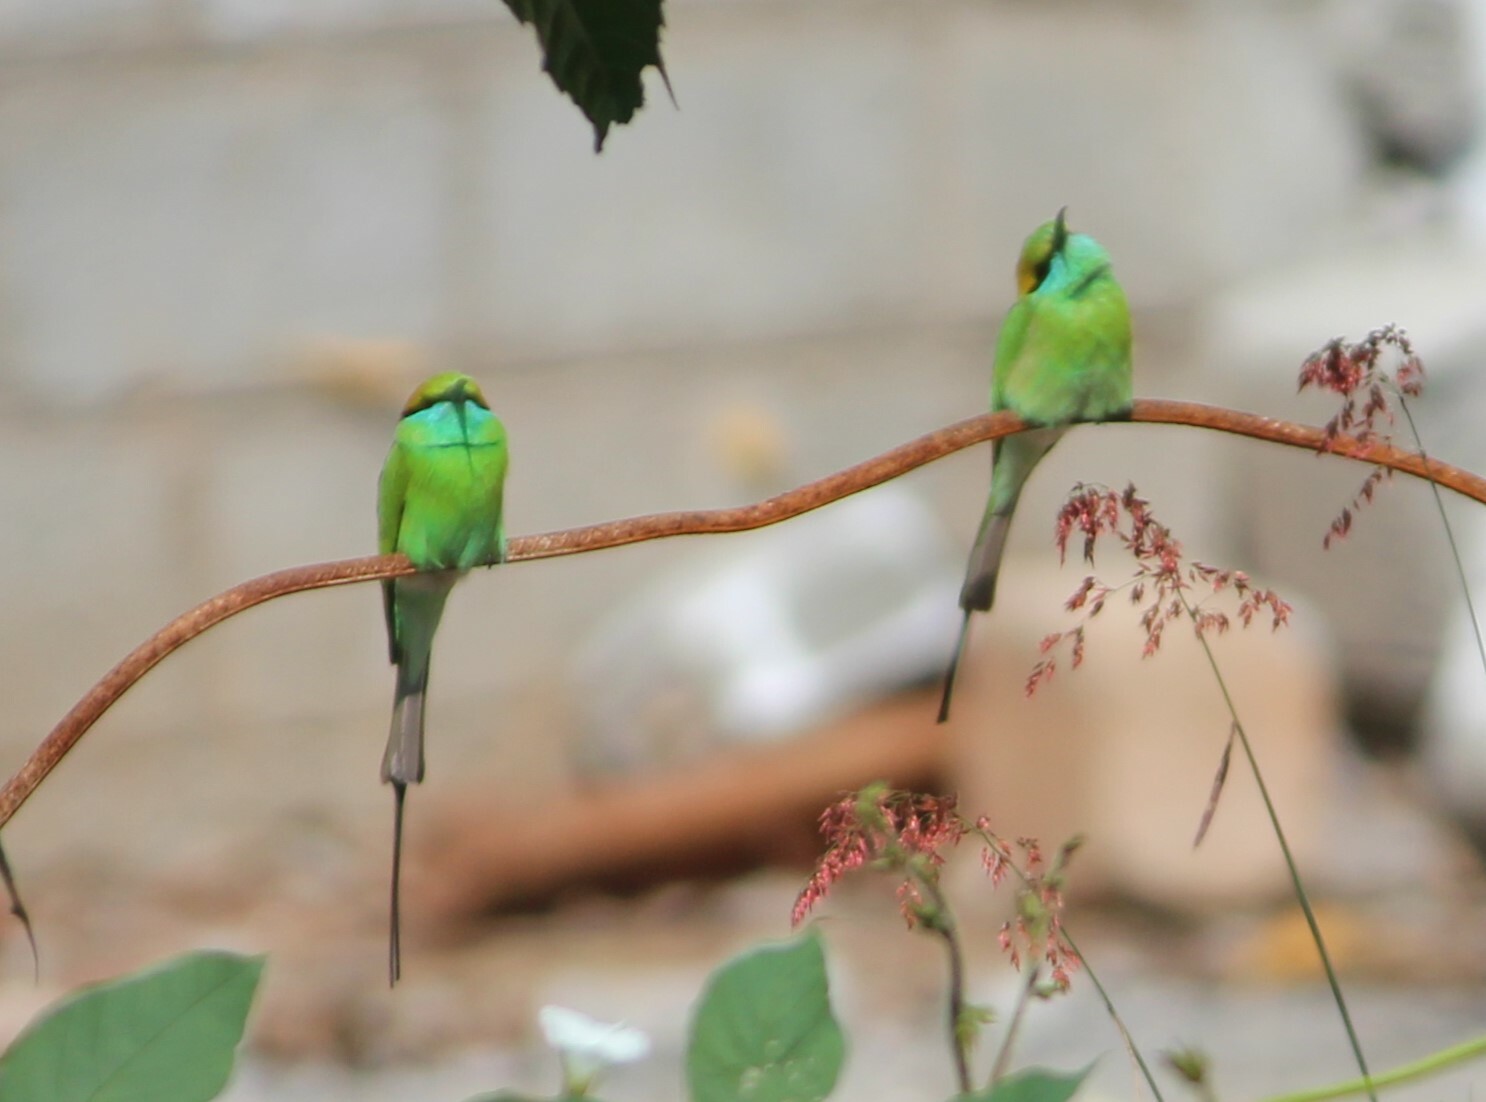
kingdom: Animalia
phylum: Chordata
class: Aves
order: Coraciiformes
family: Meropidae
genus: Merops
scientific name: Merops orientalis
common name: Green bee-eater
